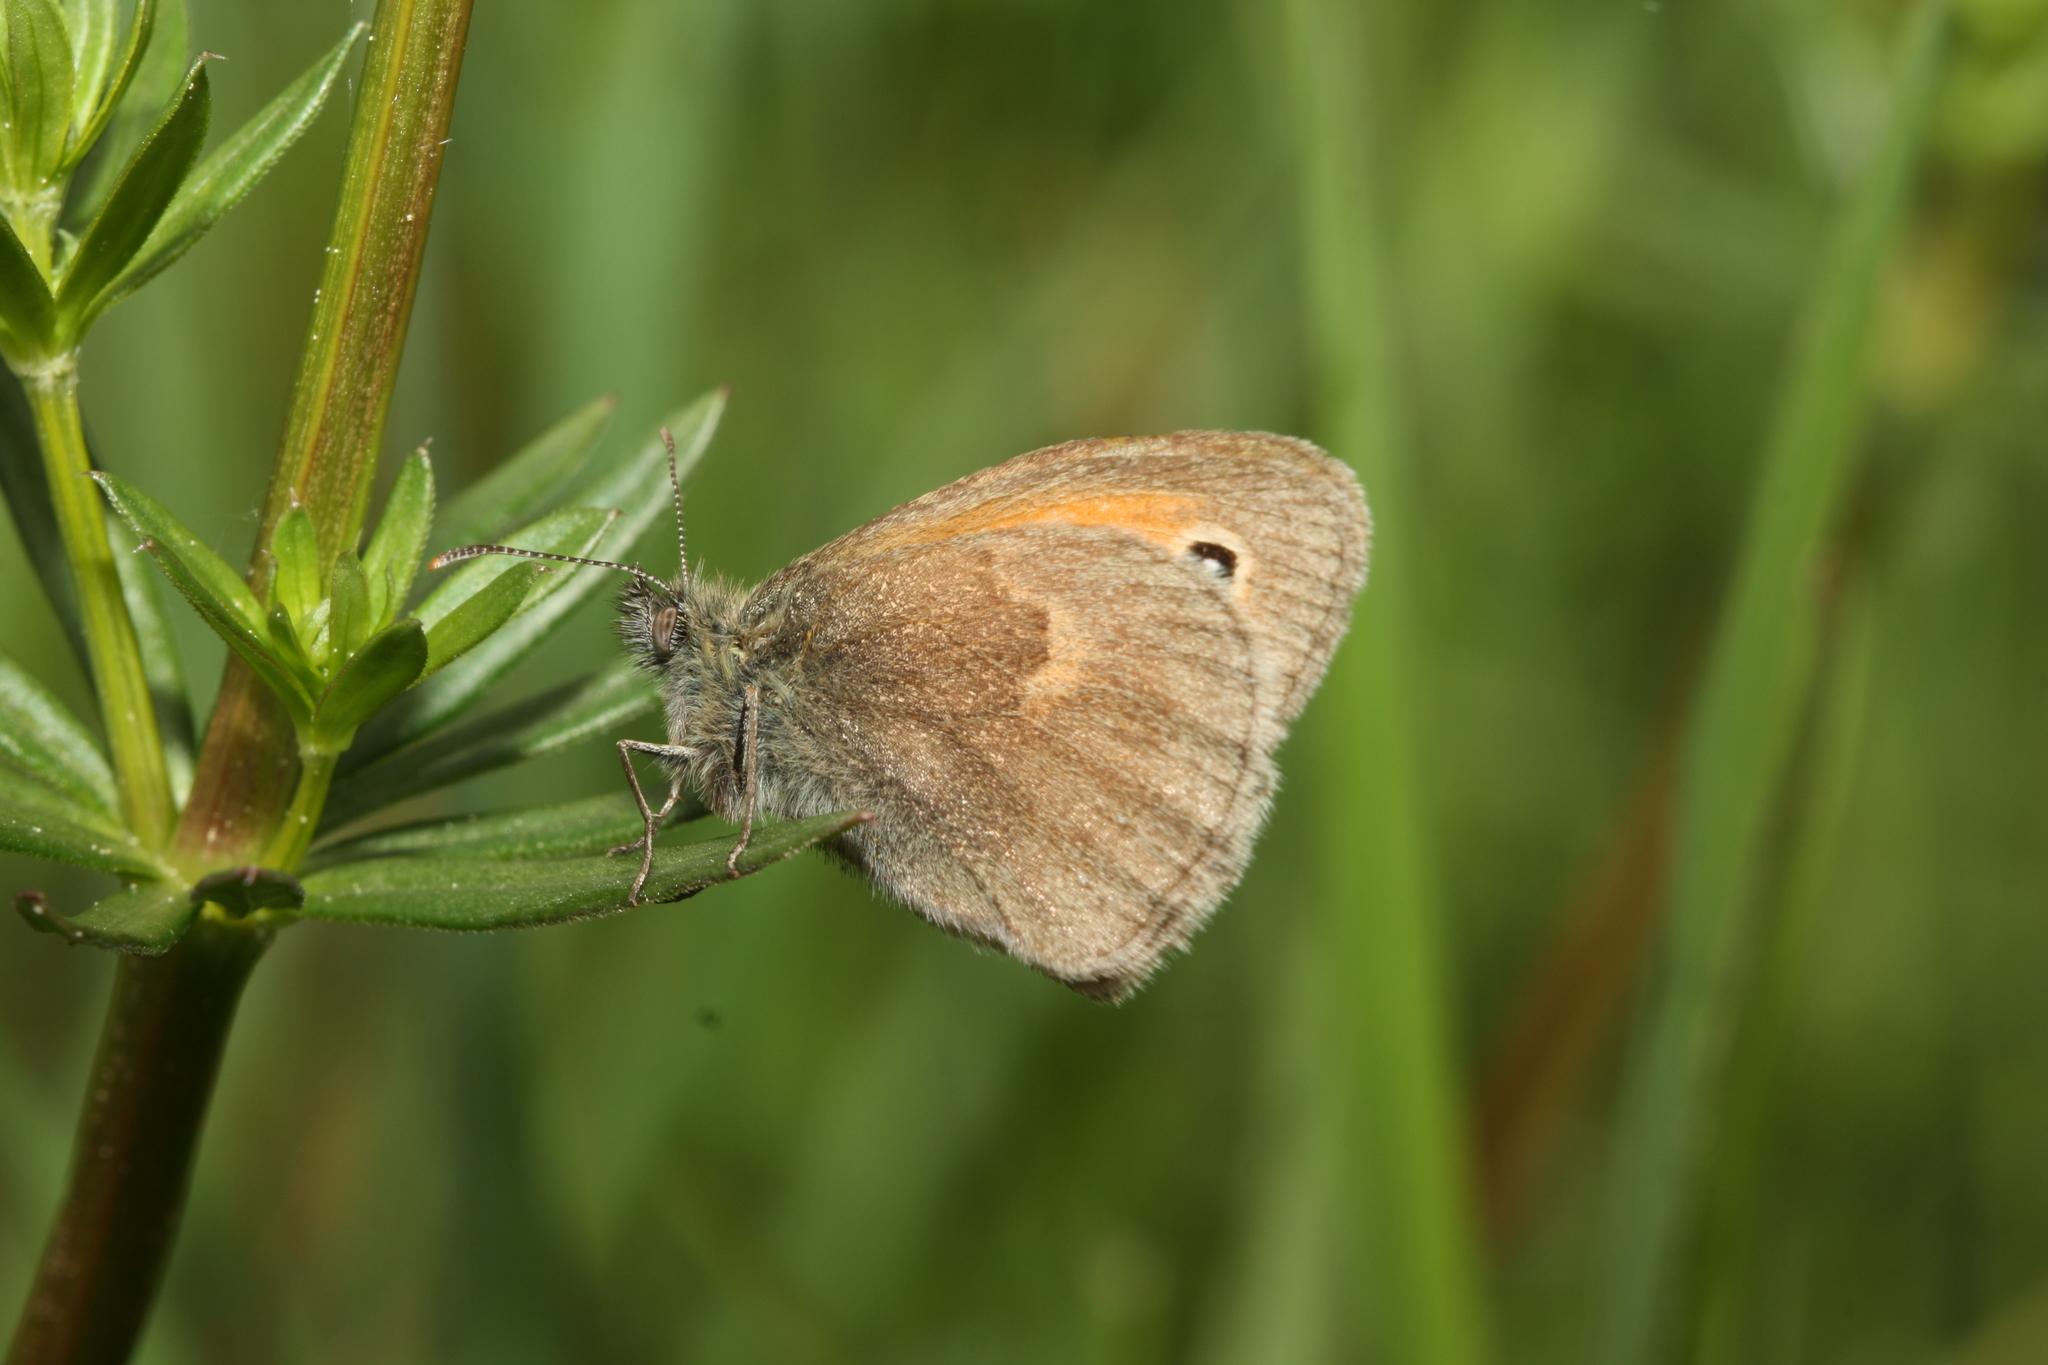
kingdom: Animalia
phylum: Arthropoda
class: Insecta
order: Lepidoptera
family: Nymphalidae
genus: Coenonympha
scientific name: Coenonympha pamphilus
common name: Small heath
